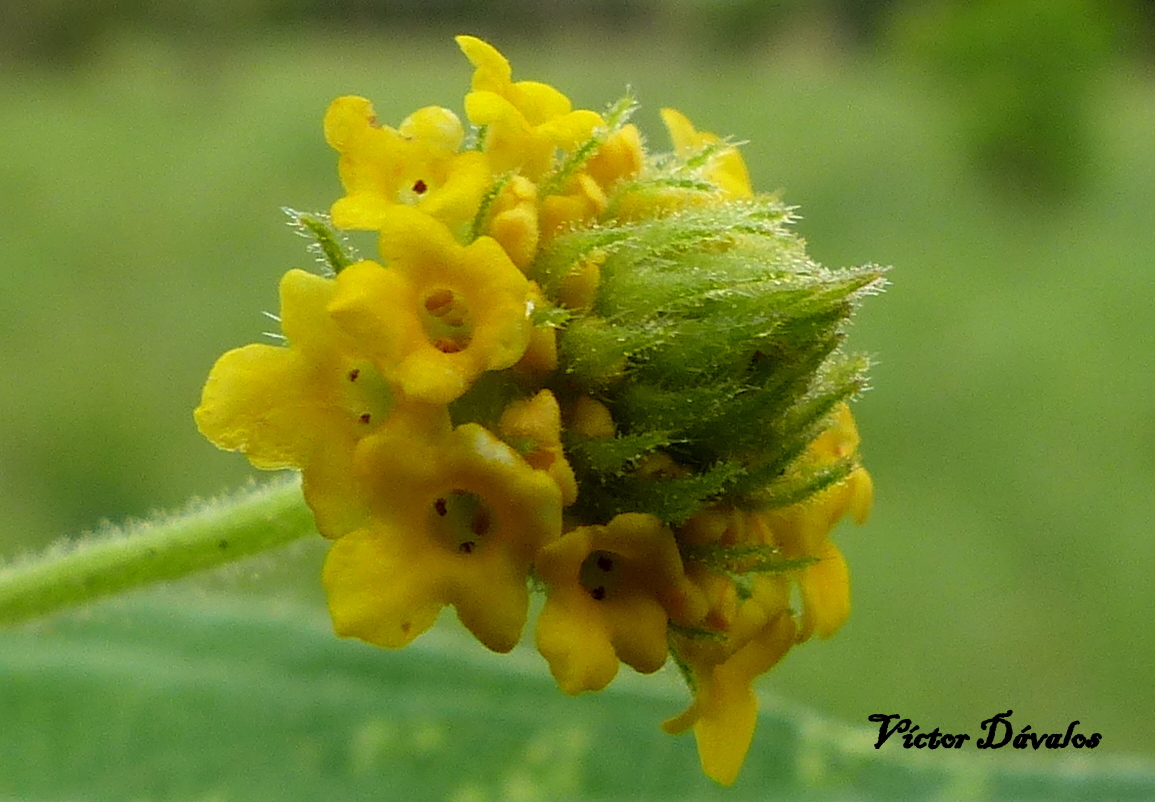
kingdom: Plantae
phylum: Tracheophyta
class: Magnoliopsida
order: Lamiales
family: Verbenaceae
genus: Lippia
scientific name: Lippia turnerifolia
